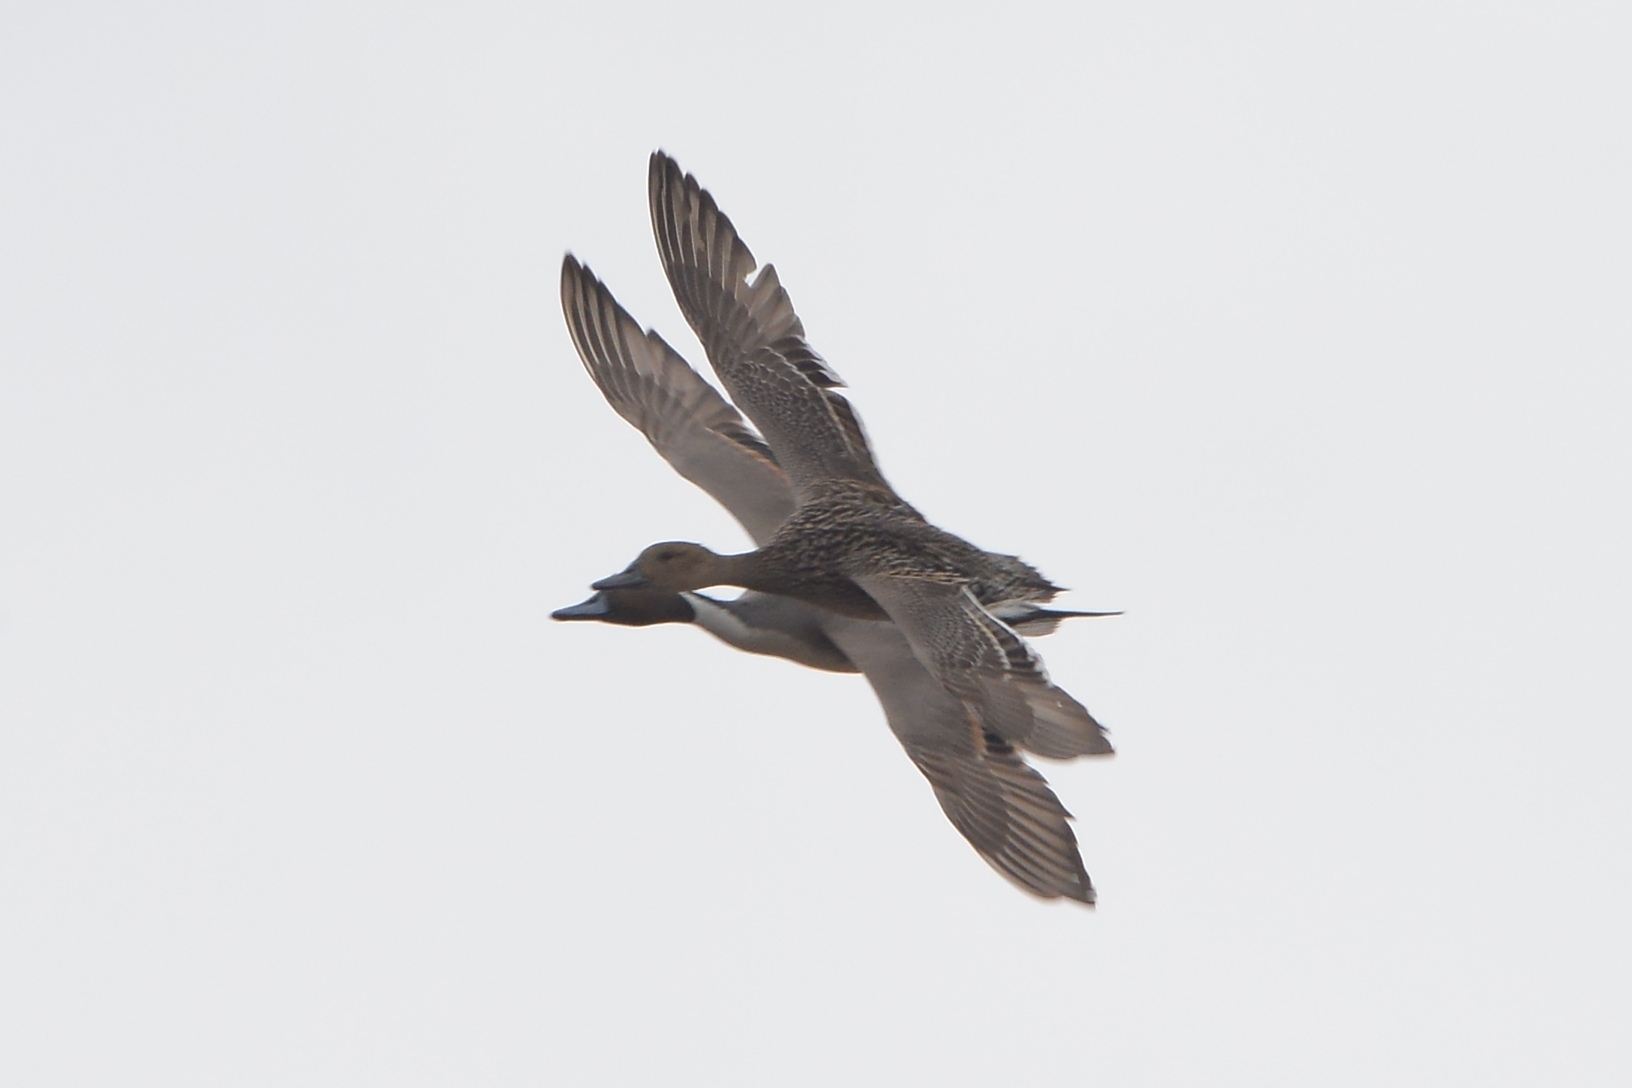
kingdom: Animalia
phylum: Chordata
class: Aves
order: Anseriformes
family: Anatidae
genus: Anas
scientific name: Anas acuta
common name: Northern pintail
